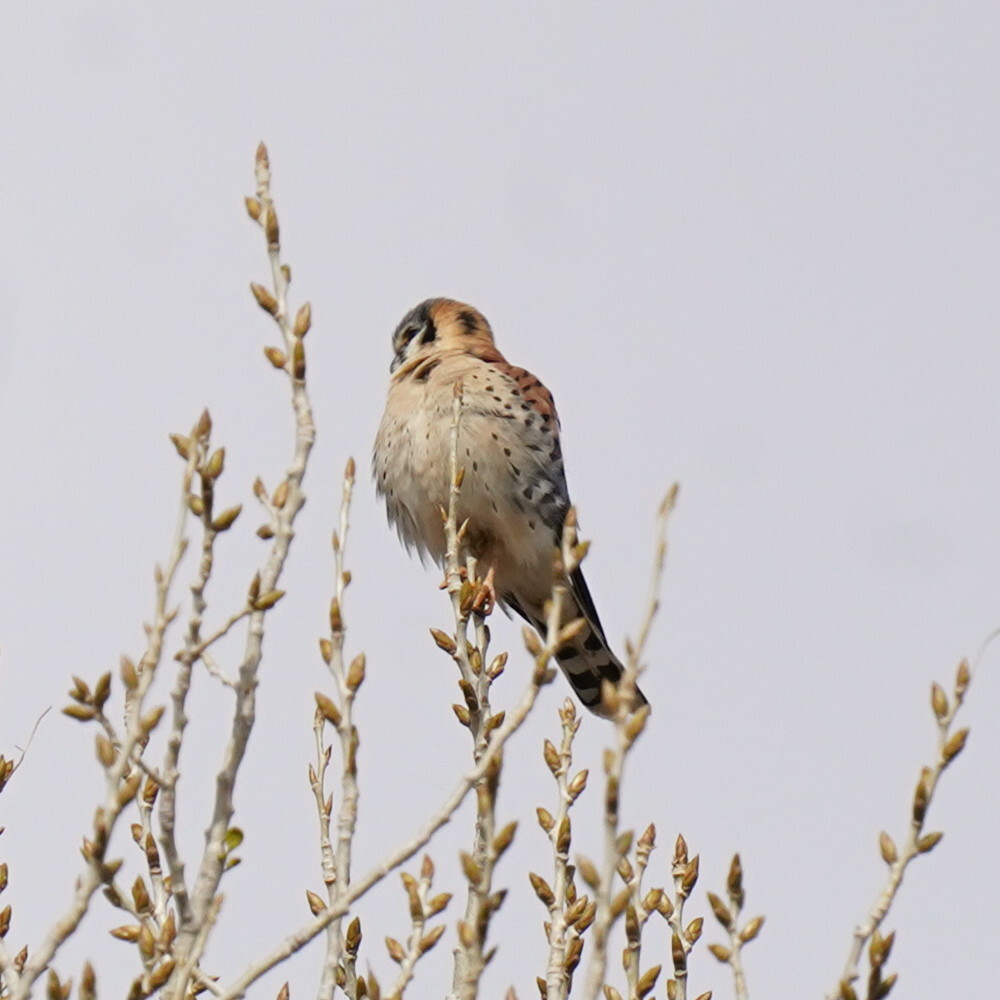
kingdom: Animalia
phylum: Chordata
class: Aves
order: Falconiformes
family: Falconidae
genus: Falco
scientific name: Falco sparverius
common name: American kestrel
